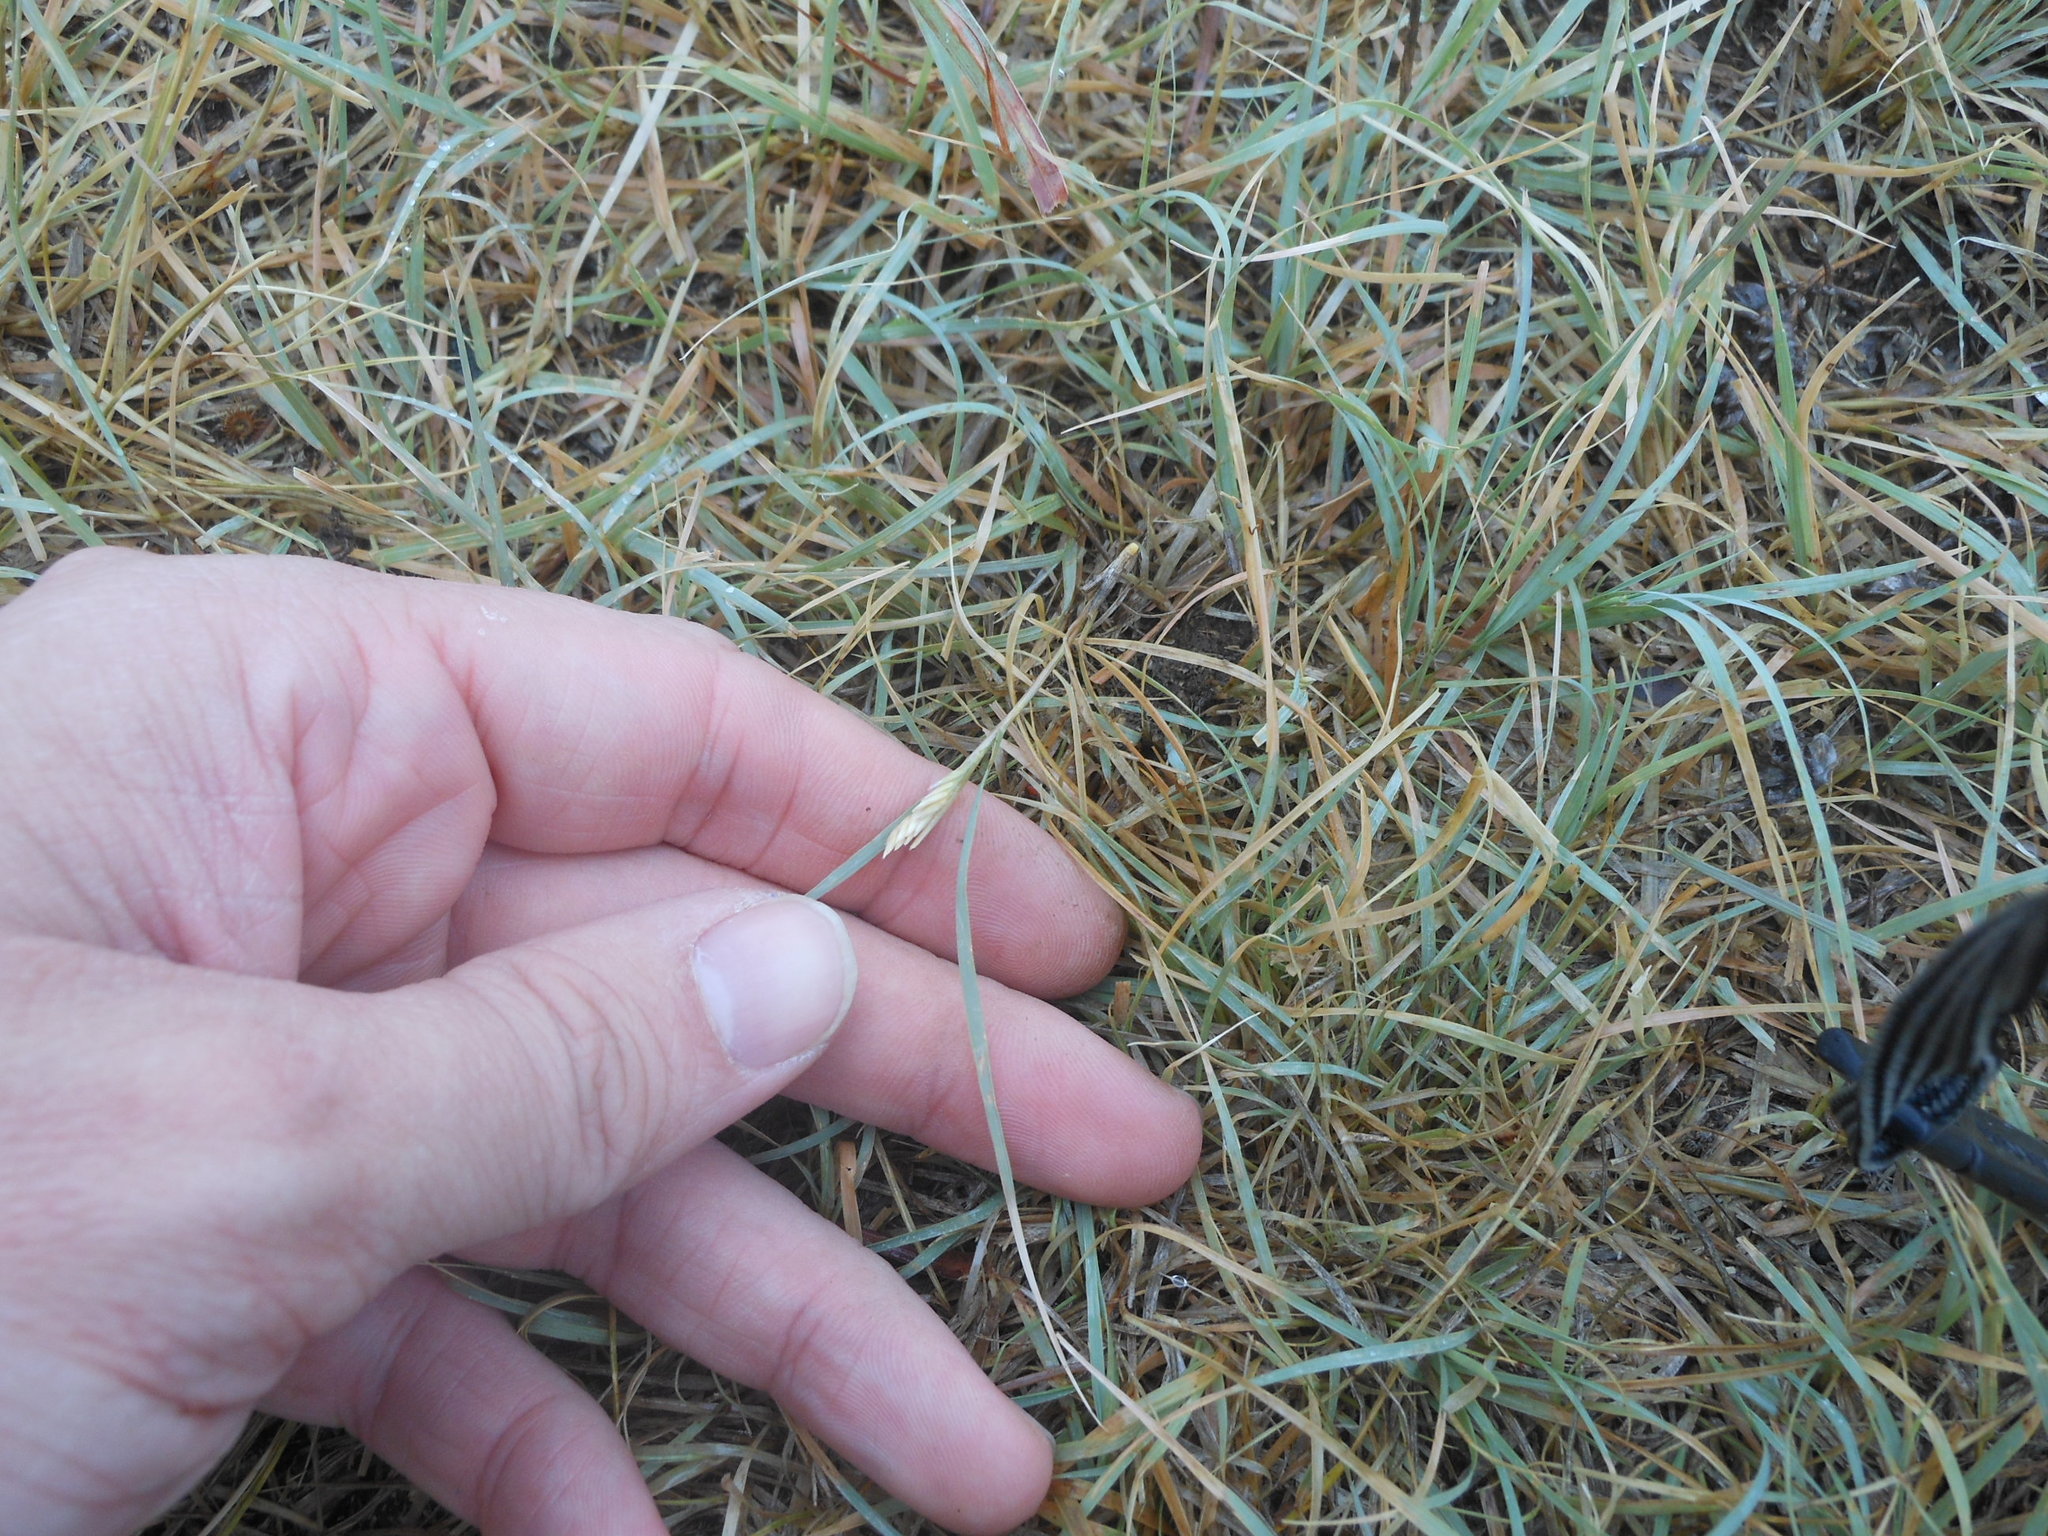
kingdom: Plantae
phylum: Tracheophyta
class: Liliopsida
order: Poales
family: Poaceae
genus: Bouteloua
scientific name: Bouteloua dactyloides
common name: Buffalo grass
